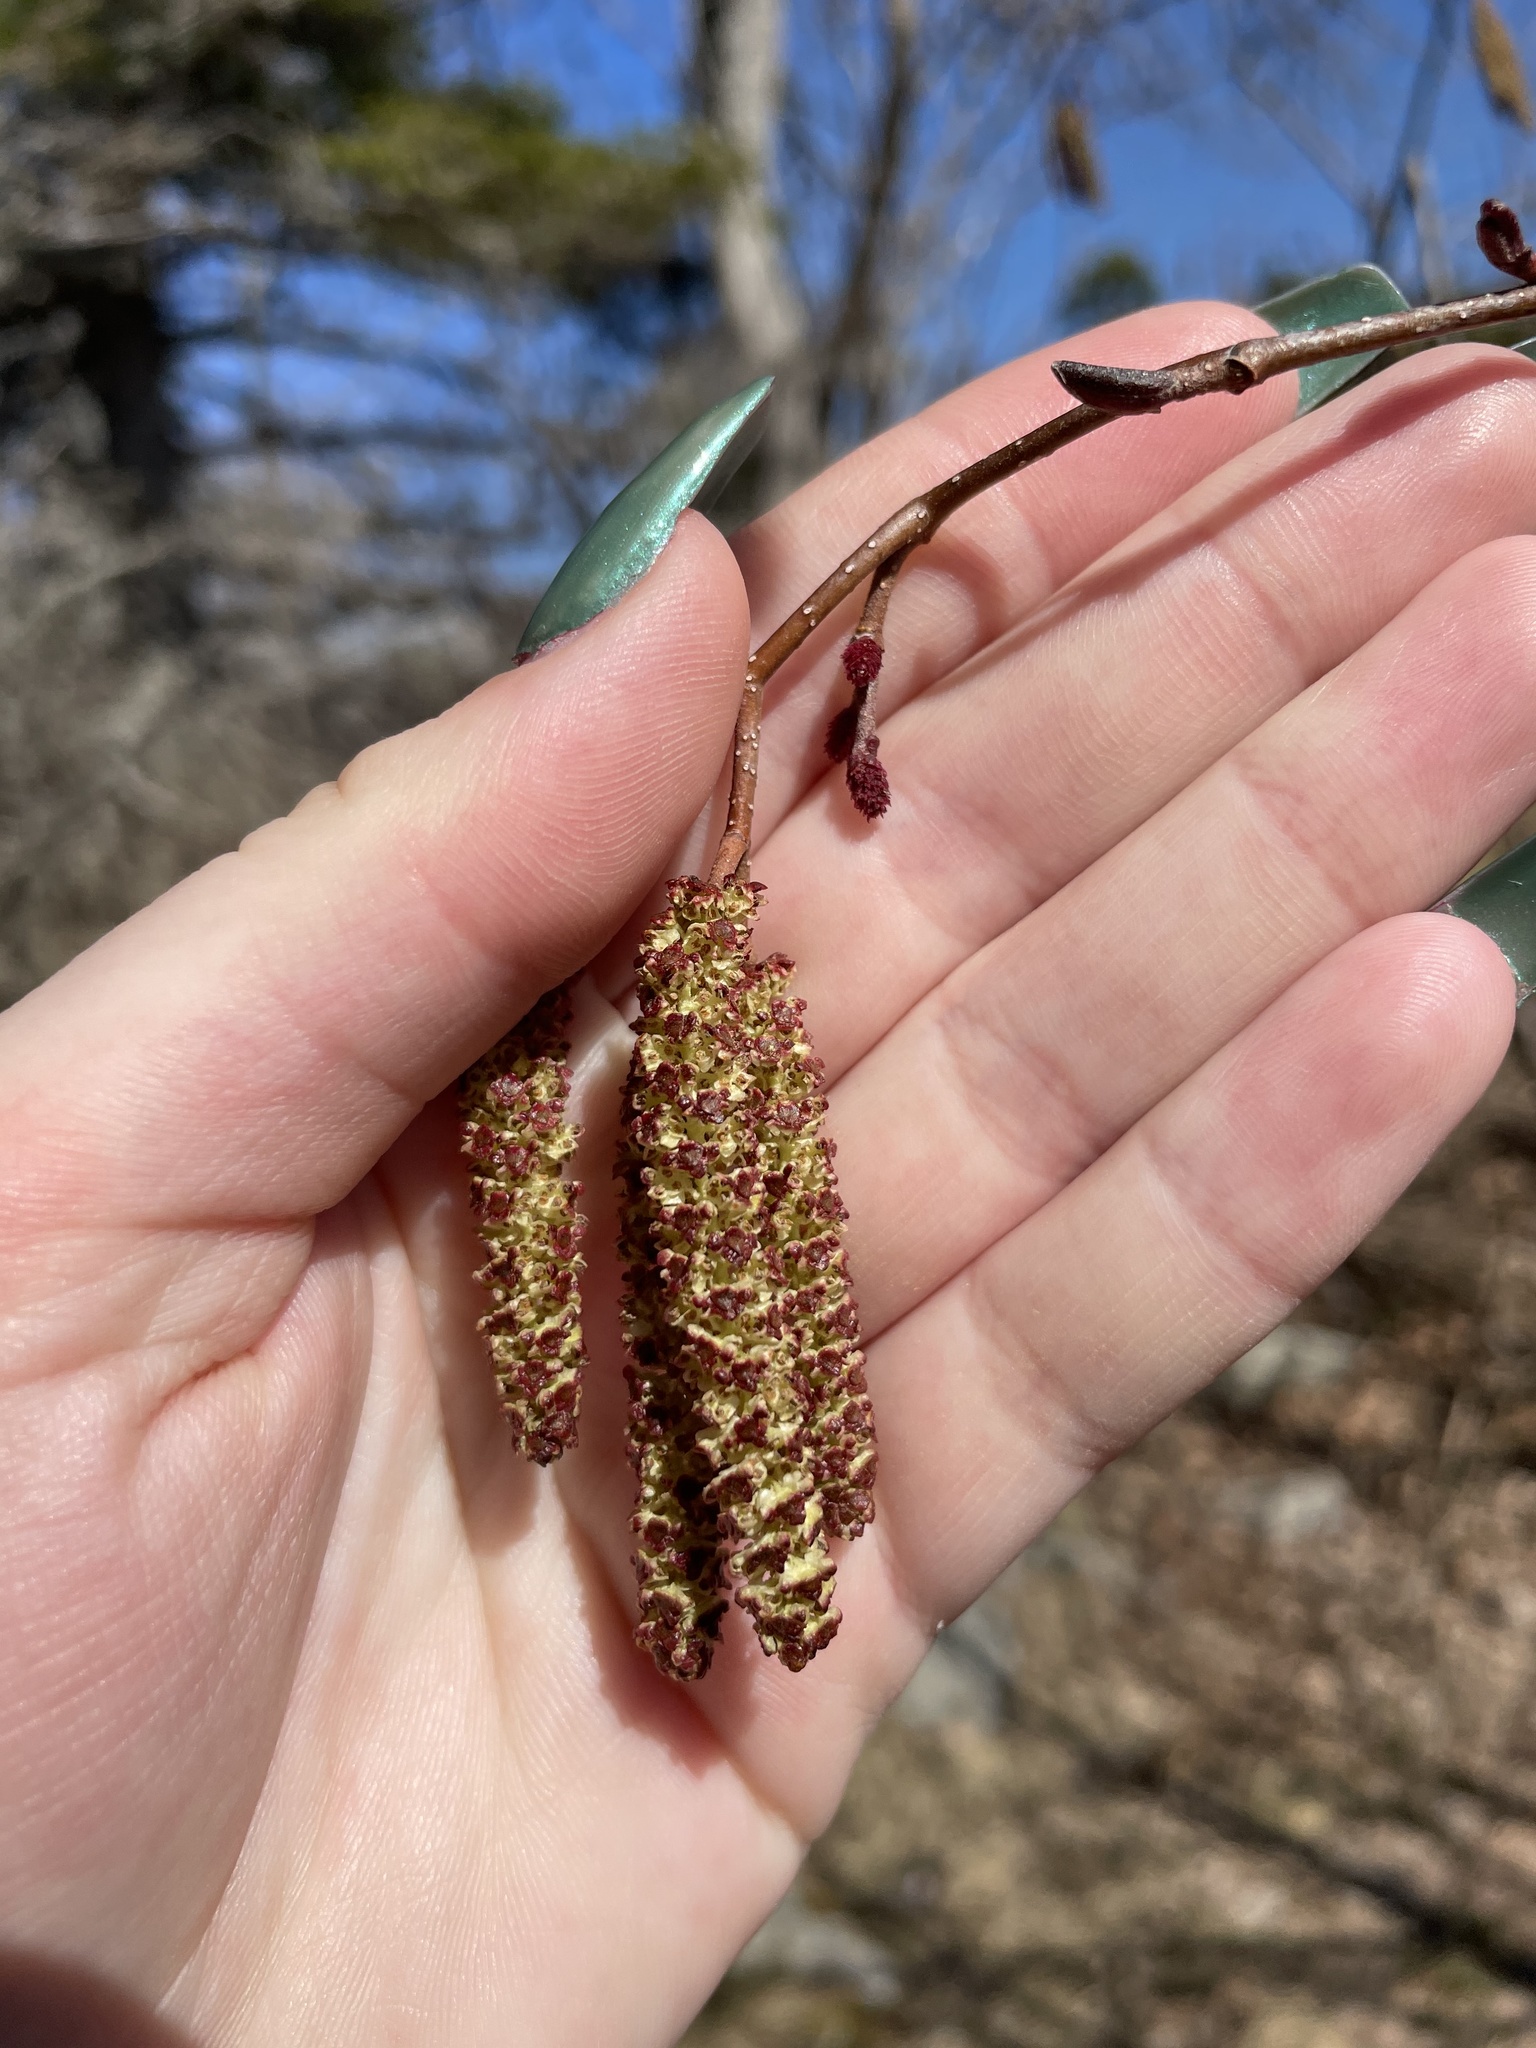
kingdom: Plantae
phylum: Tracheophyta
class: Magnoliopsida
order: Fagales
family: Betulaceae
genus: Alnus
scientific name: Alnus incana
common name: Grey alder
